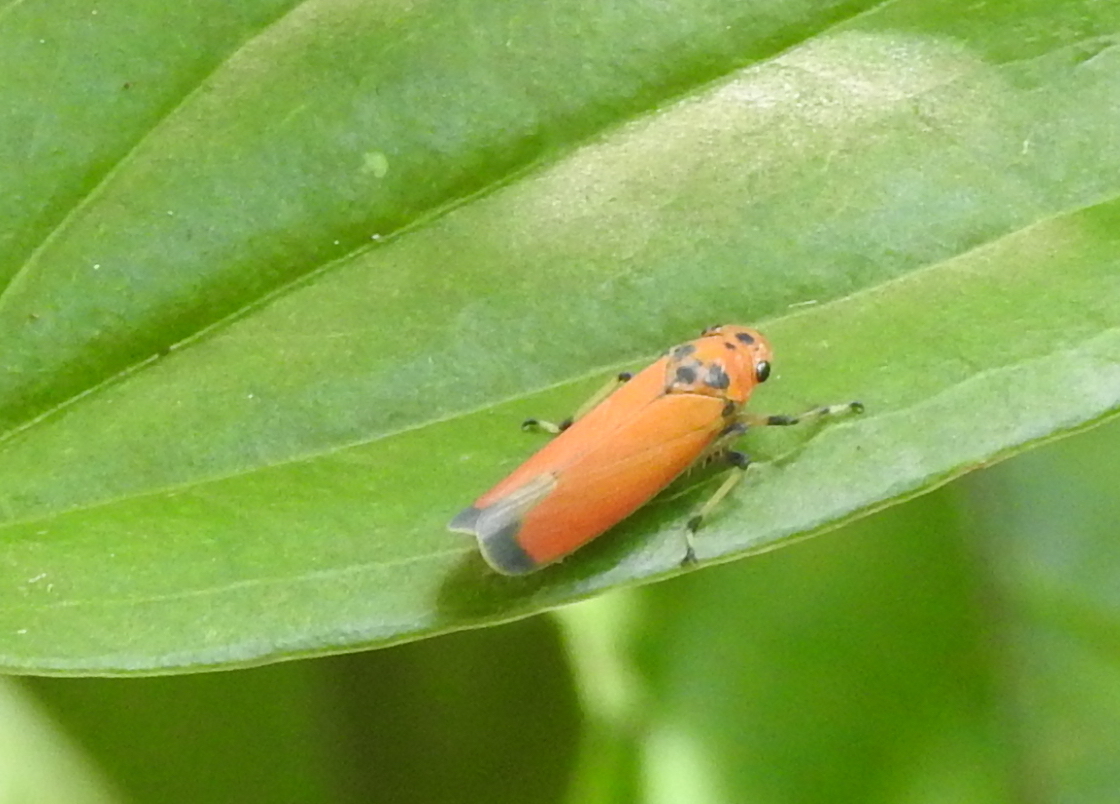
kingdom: Animalia
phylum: Arthropoda
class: Insecta
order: Hemiptera
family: Cicadellidae
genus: Bothrogonia
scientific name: Bothrogonia addita
